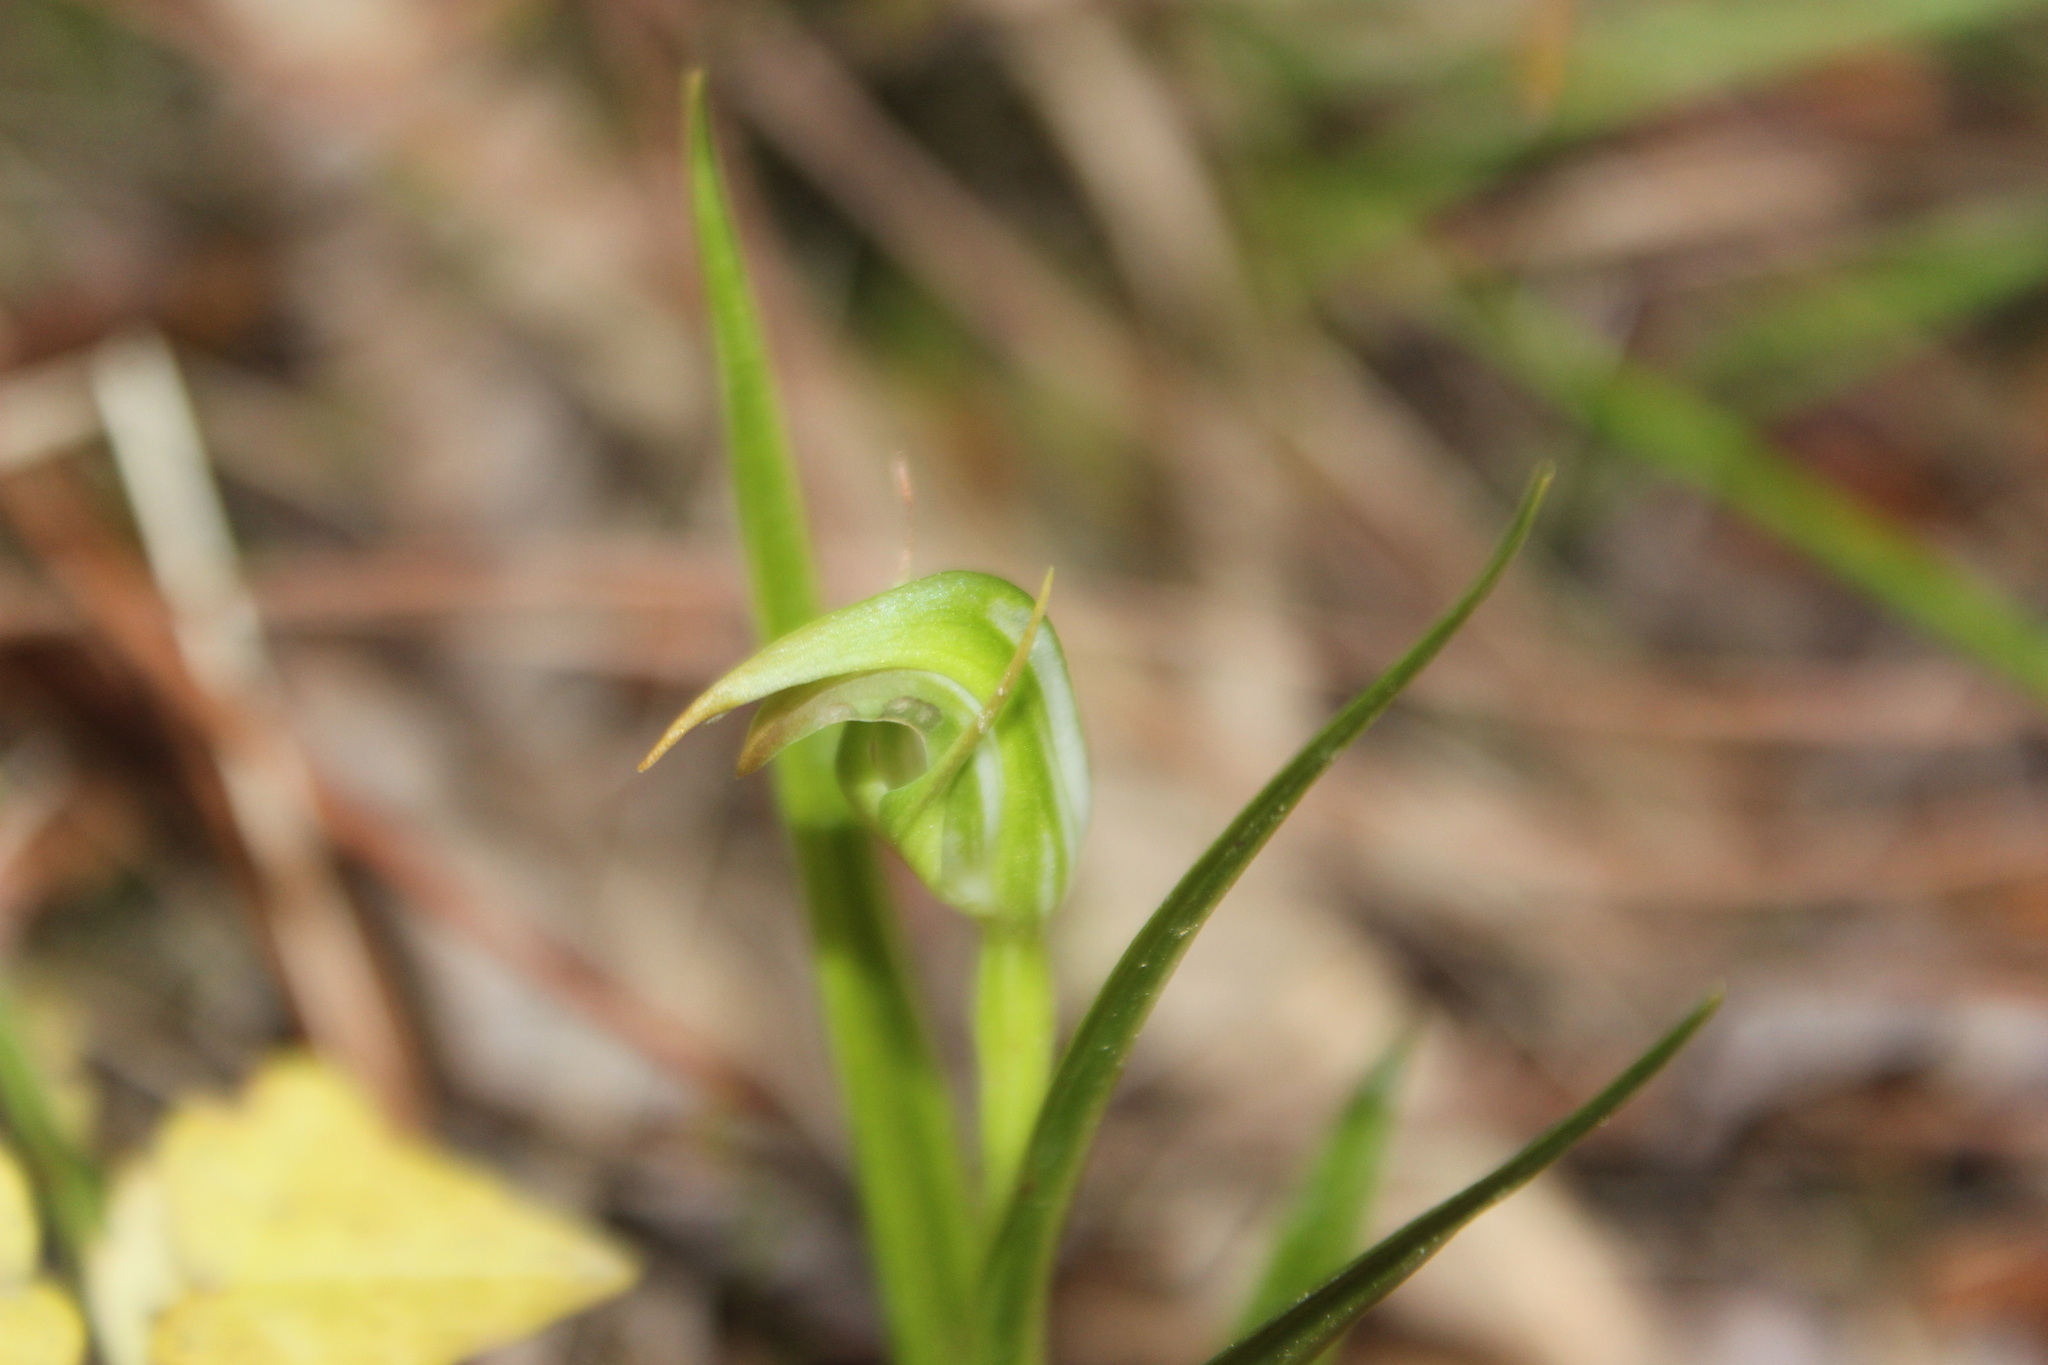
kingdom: Plantae
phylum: Tracheophyta
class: Liliopsida
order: Asparagales
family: Orchidaceae
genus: Pterostylis
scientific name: Pterostylis graminea
